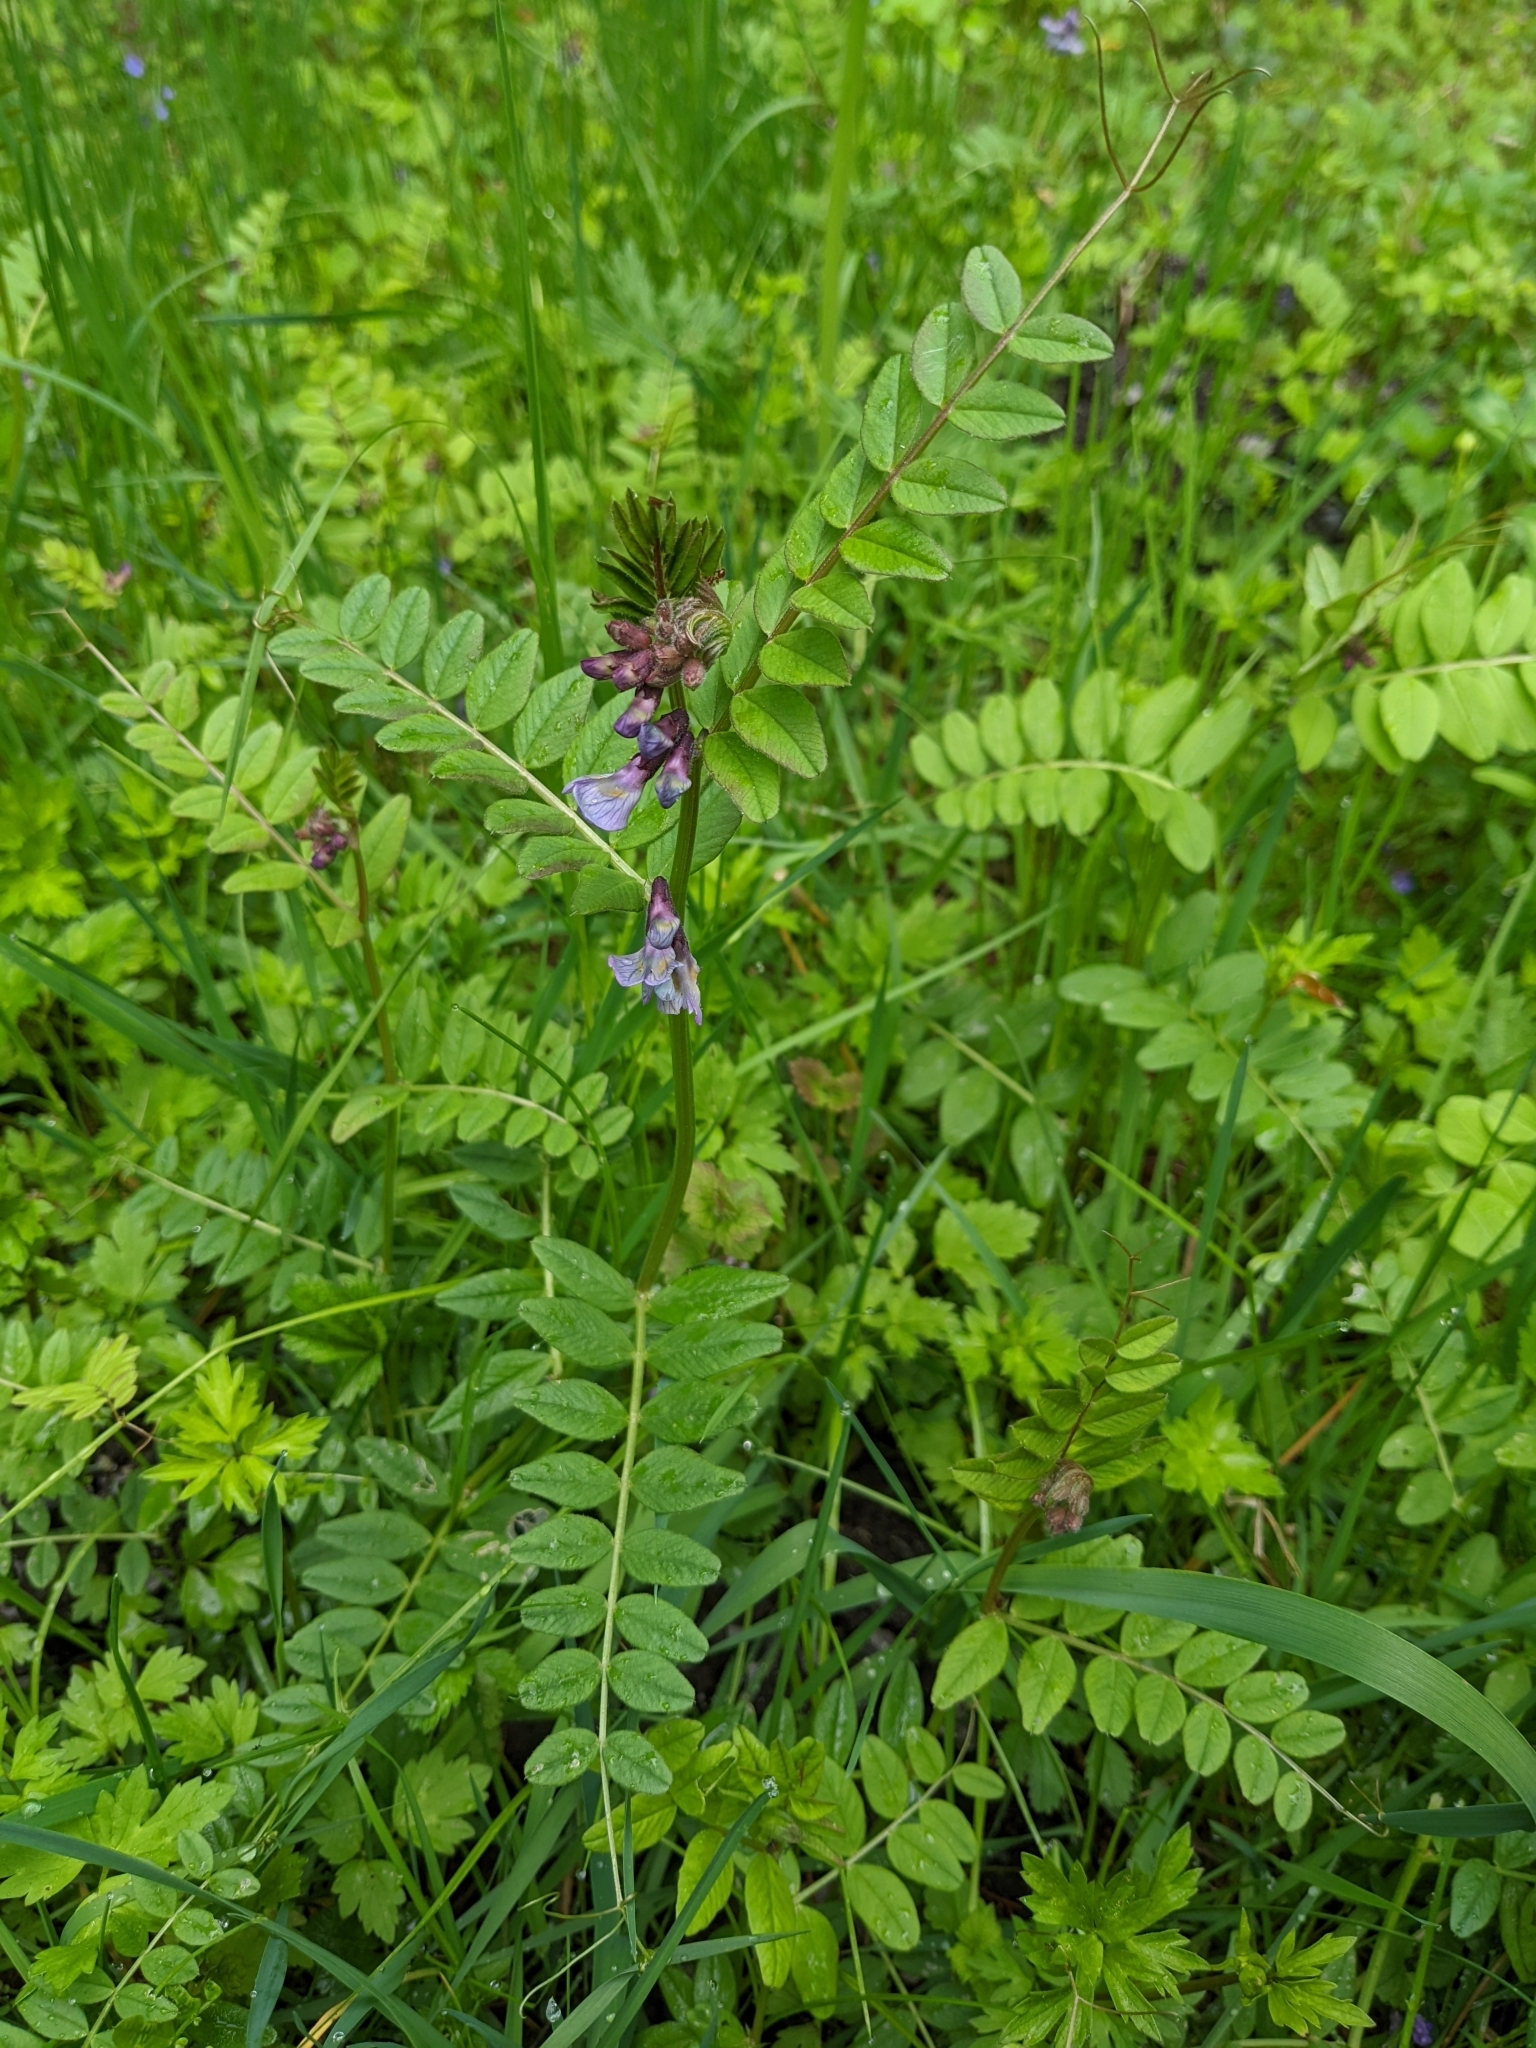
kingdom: Plantae
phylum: Tracheophyta
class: Magnoliopsida
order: Fabales
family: Fabaceae
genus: Vicia
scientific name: Vicia sepium
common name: Bush vetch
